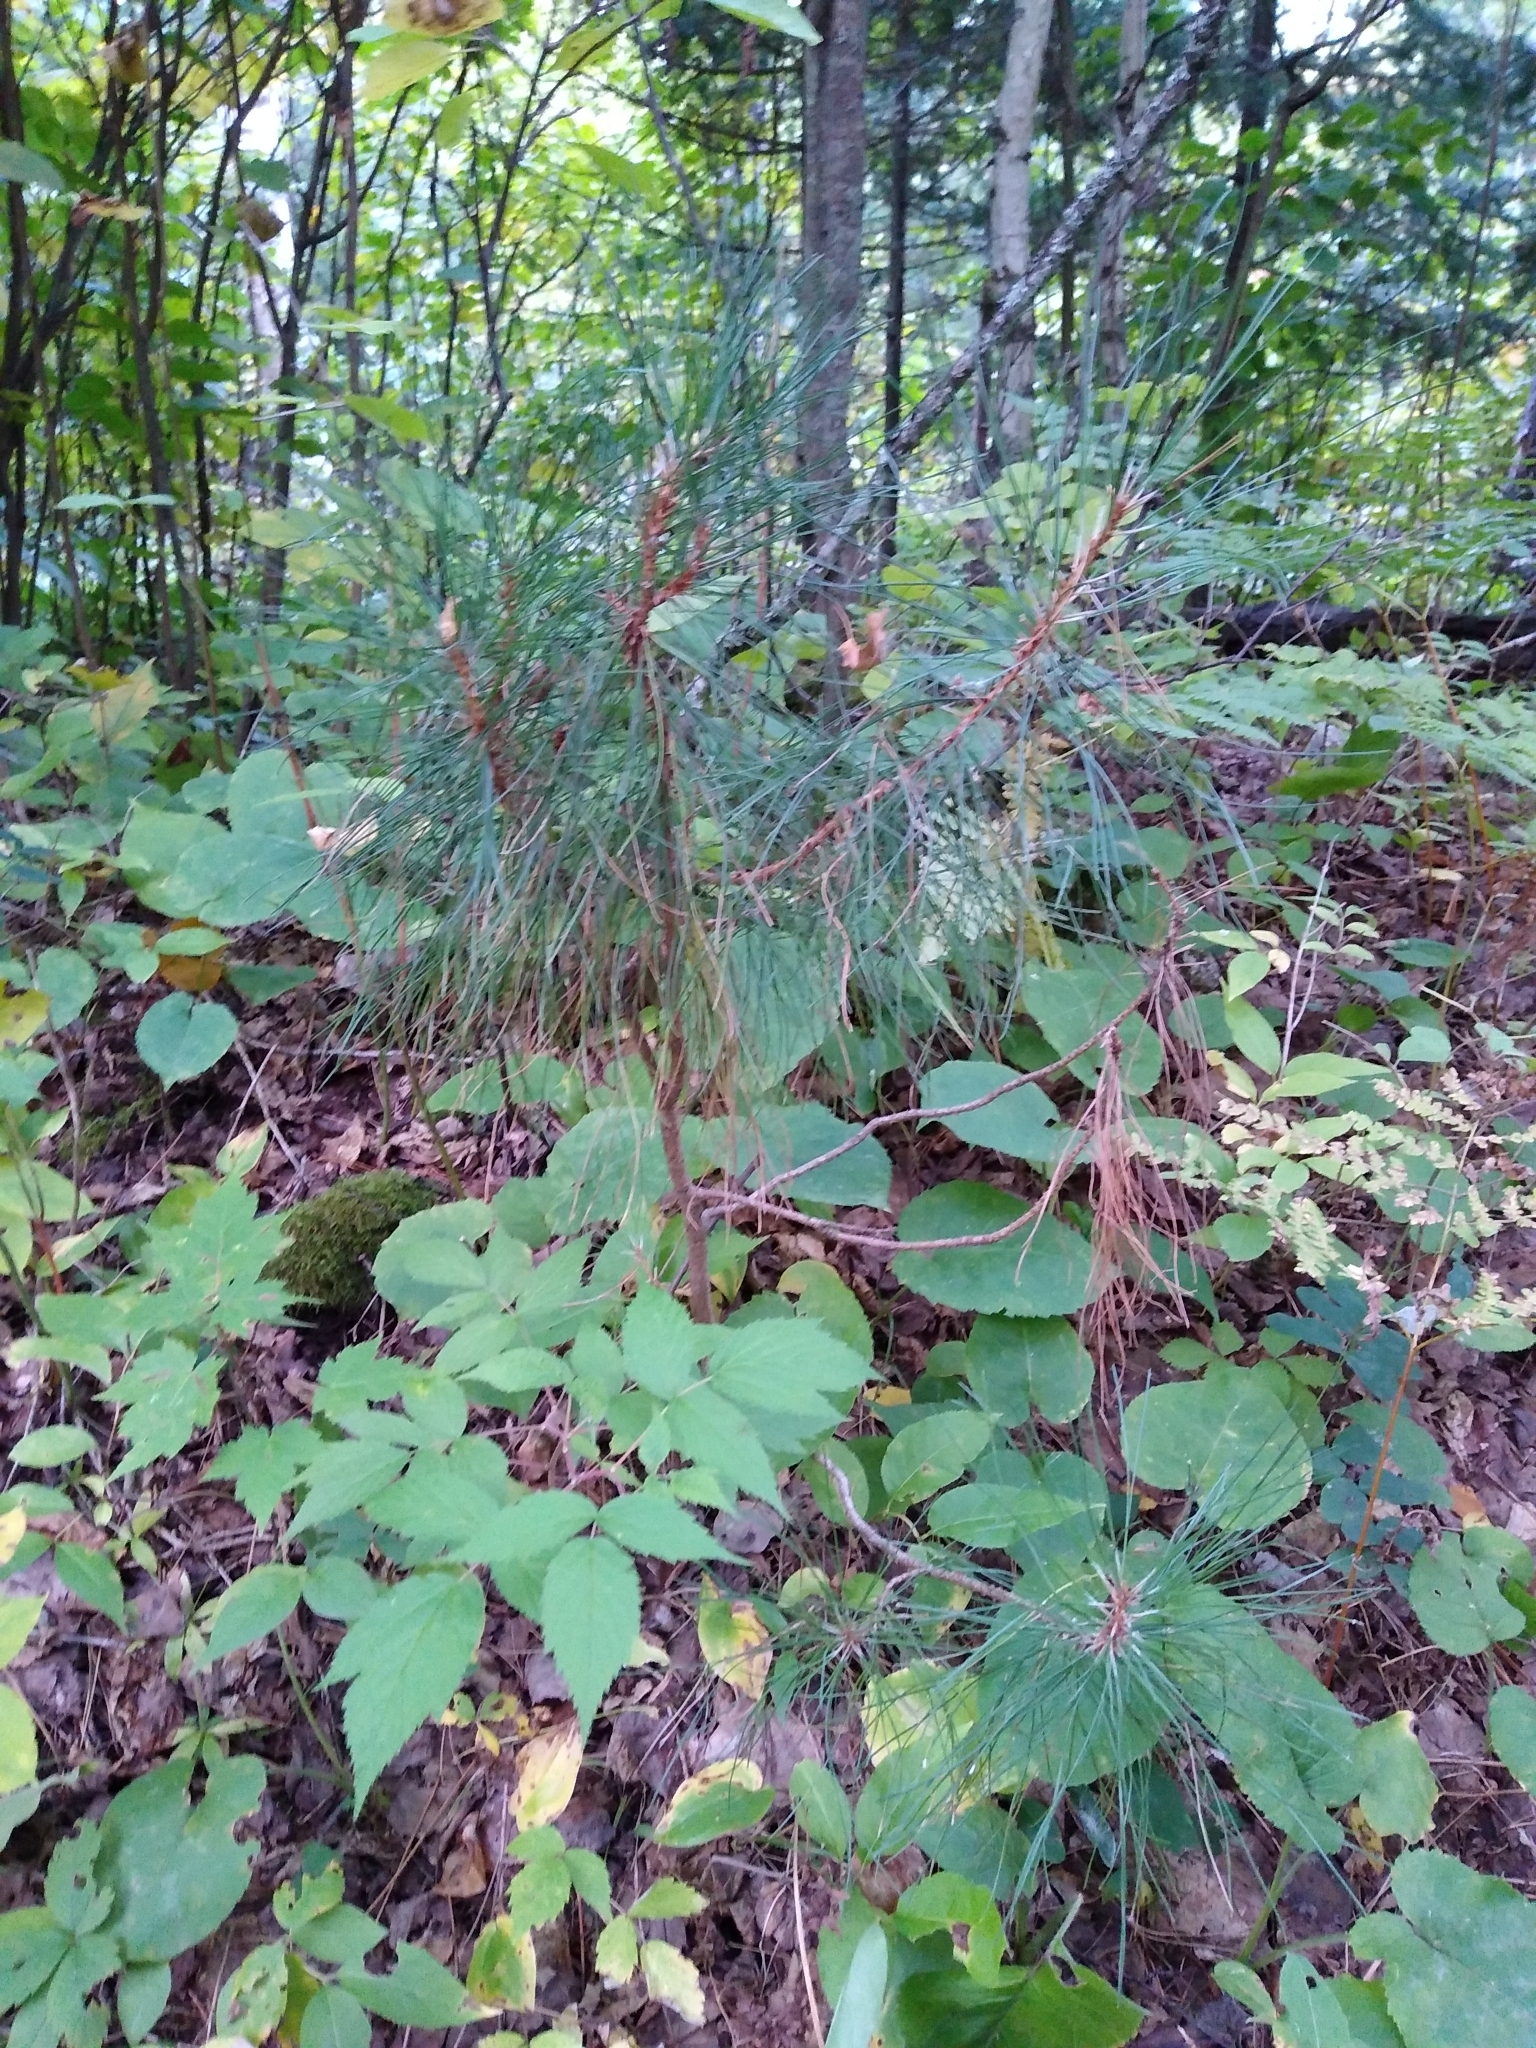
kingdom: Plantae
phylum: Tracheophyta
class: Pinopsida
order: Pinales
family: Pinaceae
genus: Pinus
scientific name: Pinus resinosa
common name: Norway pine
